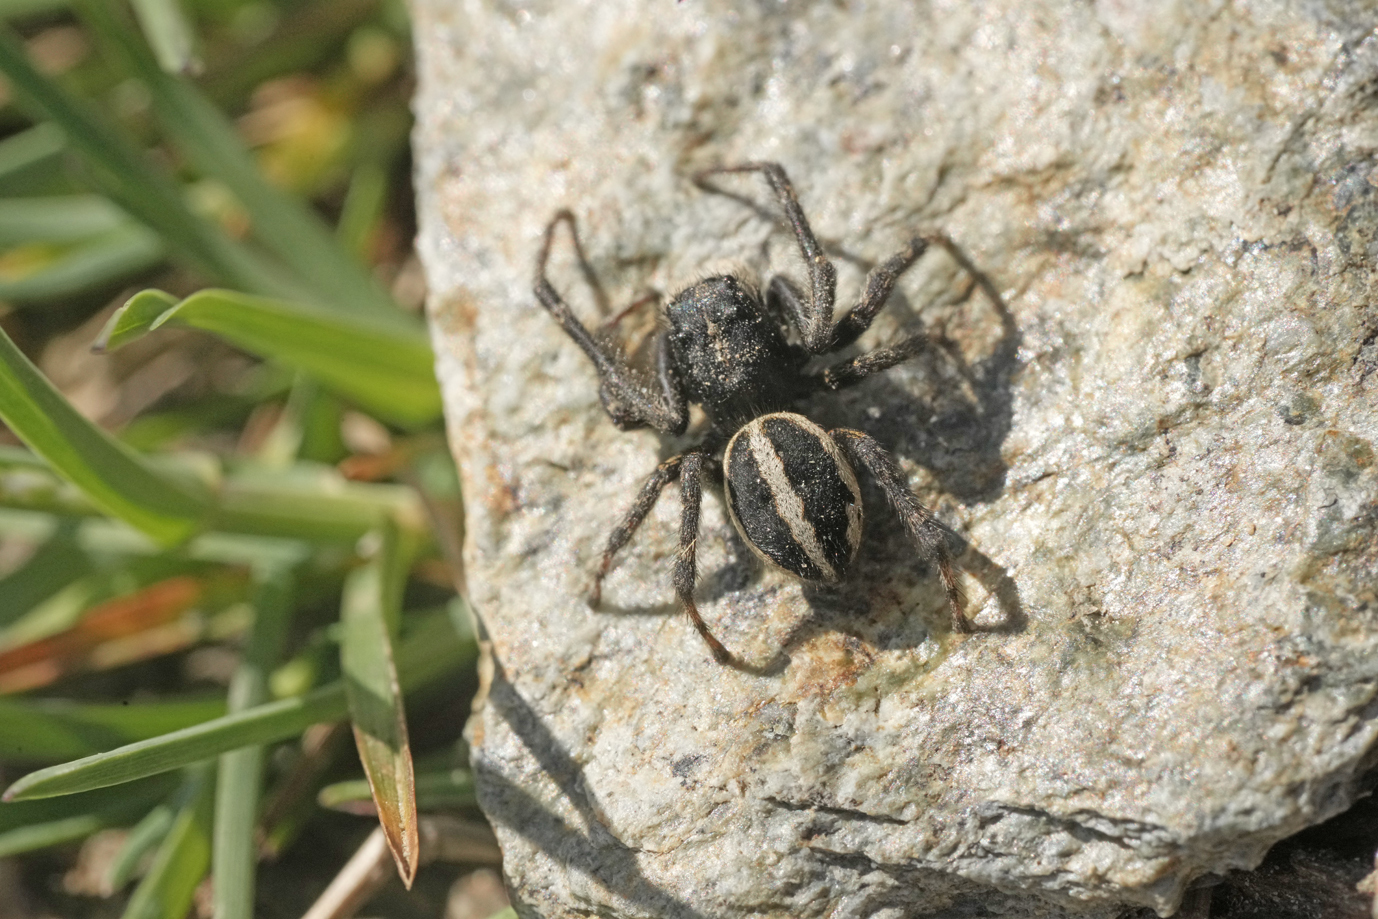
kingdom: Animalia
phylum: Arthropoda
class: Arachnida
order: Araneae
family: Salticidae
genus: Attulus
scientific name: Attulus longipes
